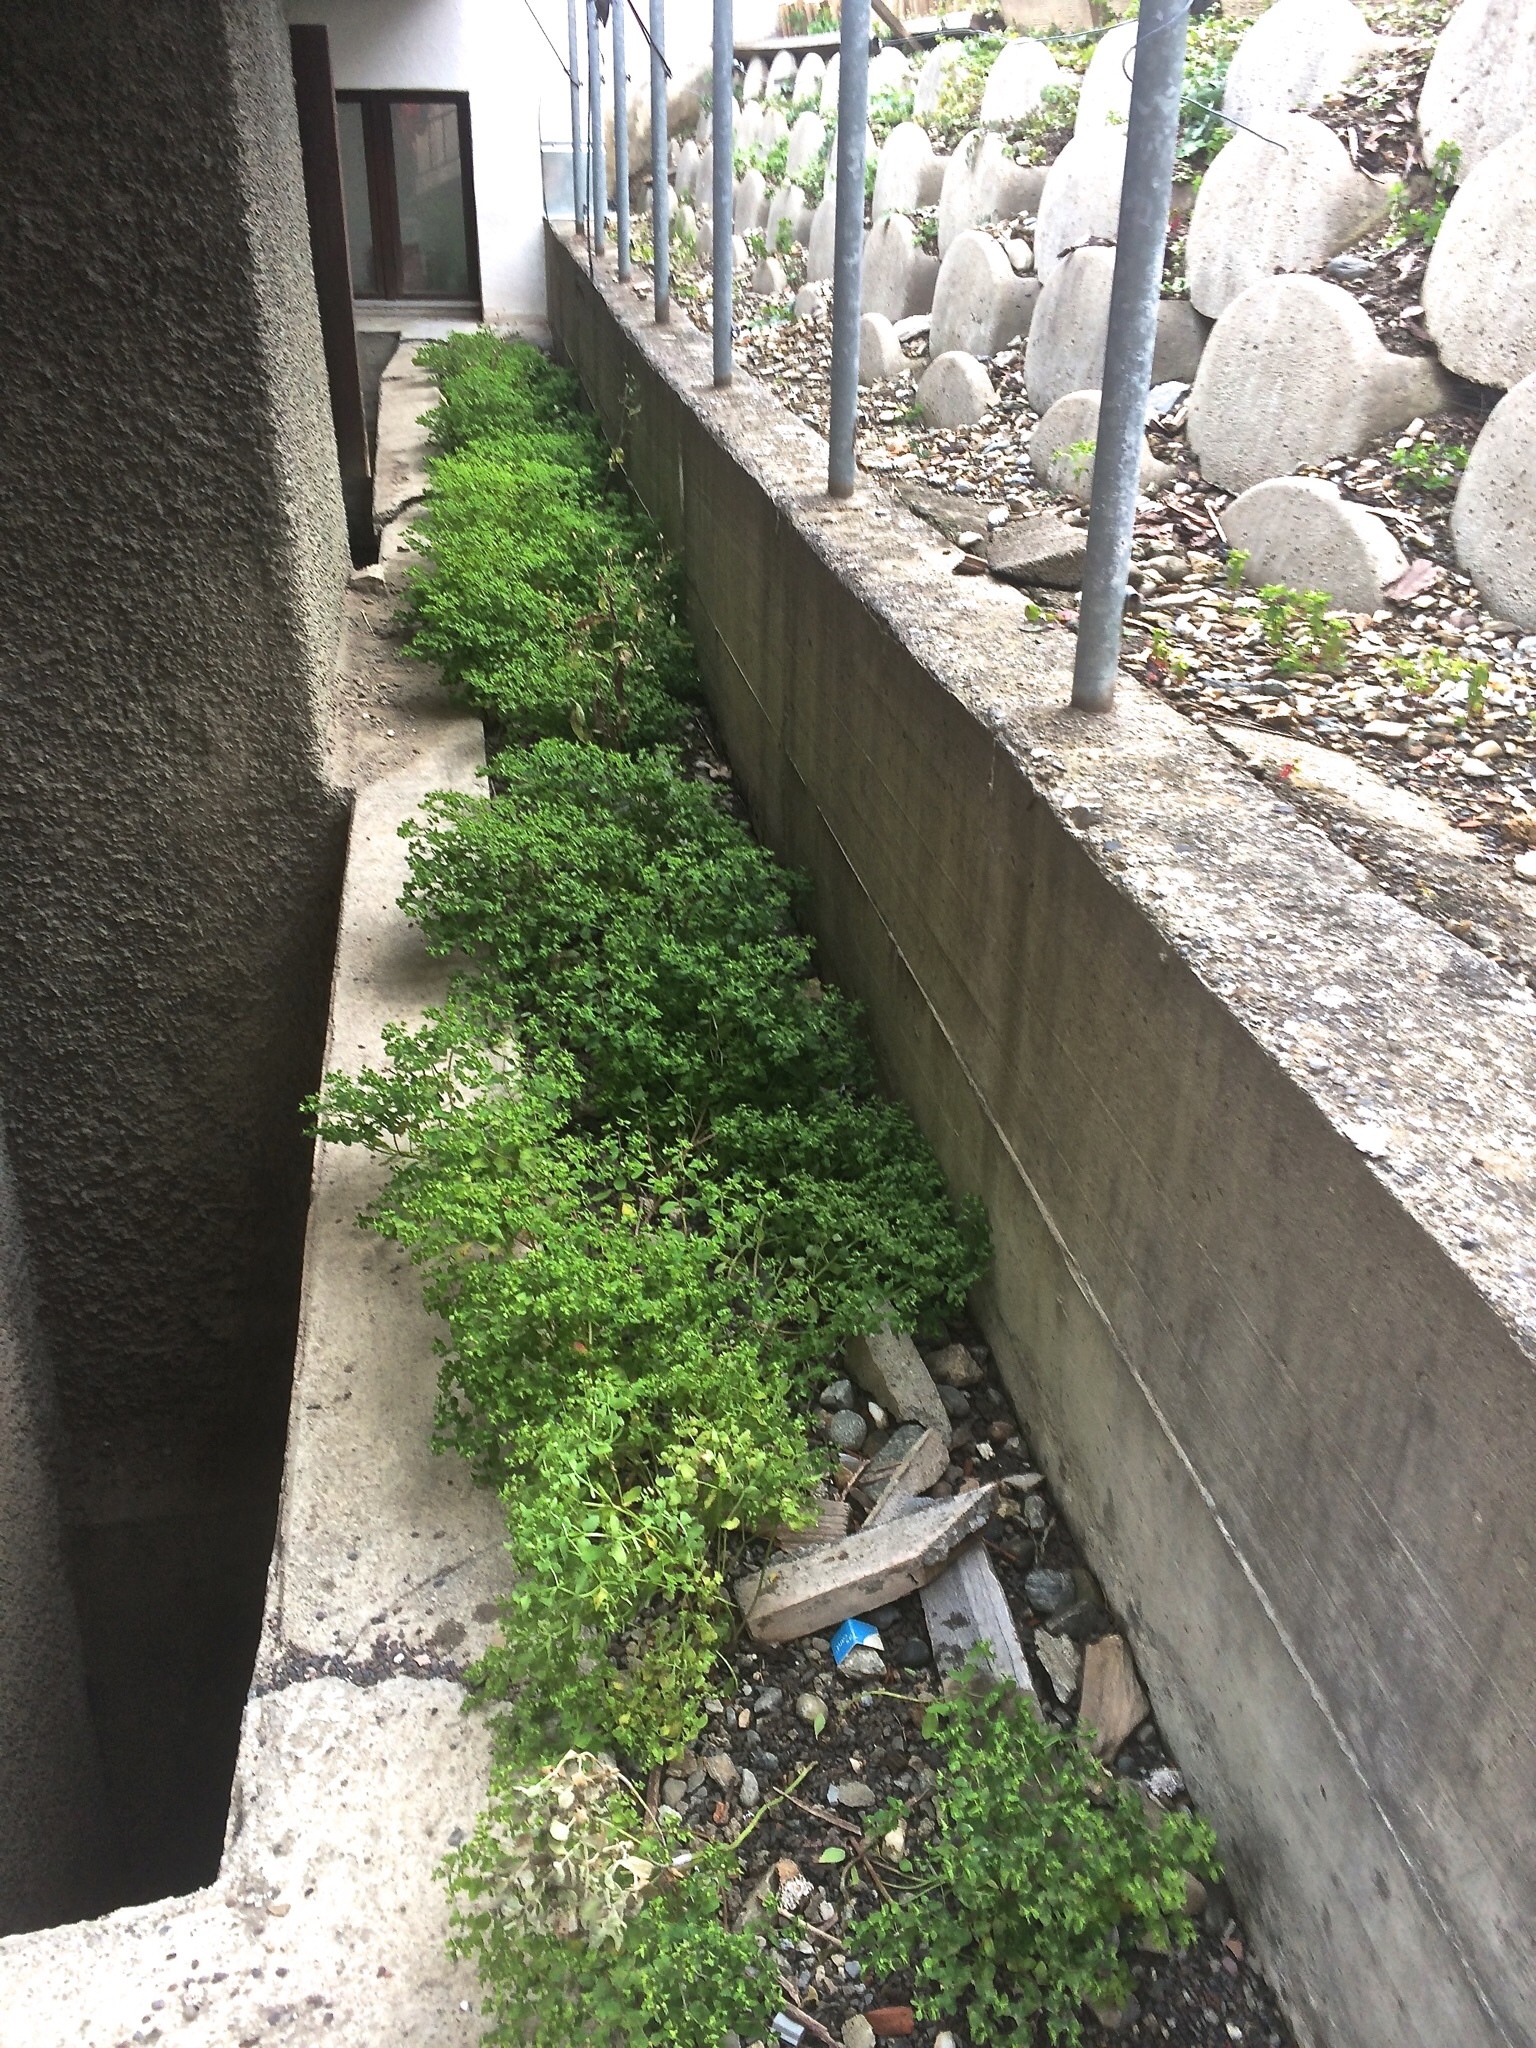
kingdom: Plantae
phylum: Tracheophyta
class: Magnoliopsida
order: Malpighiales
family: Euphorbiaceae
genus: Euphorbia
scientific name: Euphorbia peplus
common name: Petty spurge
